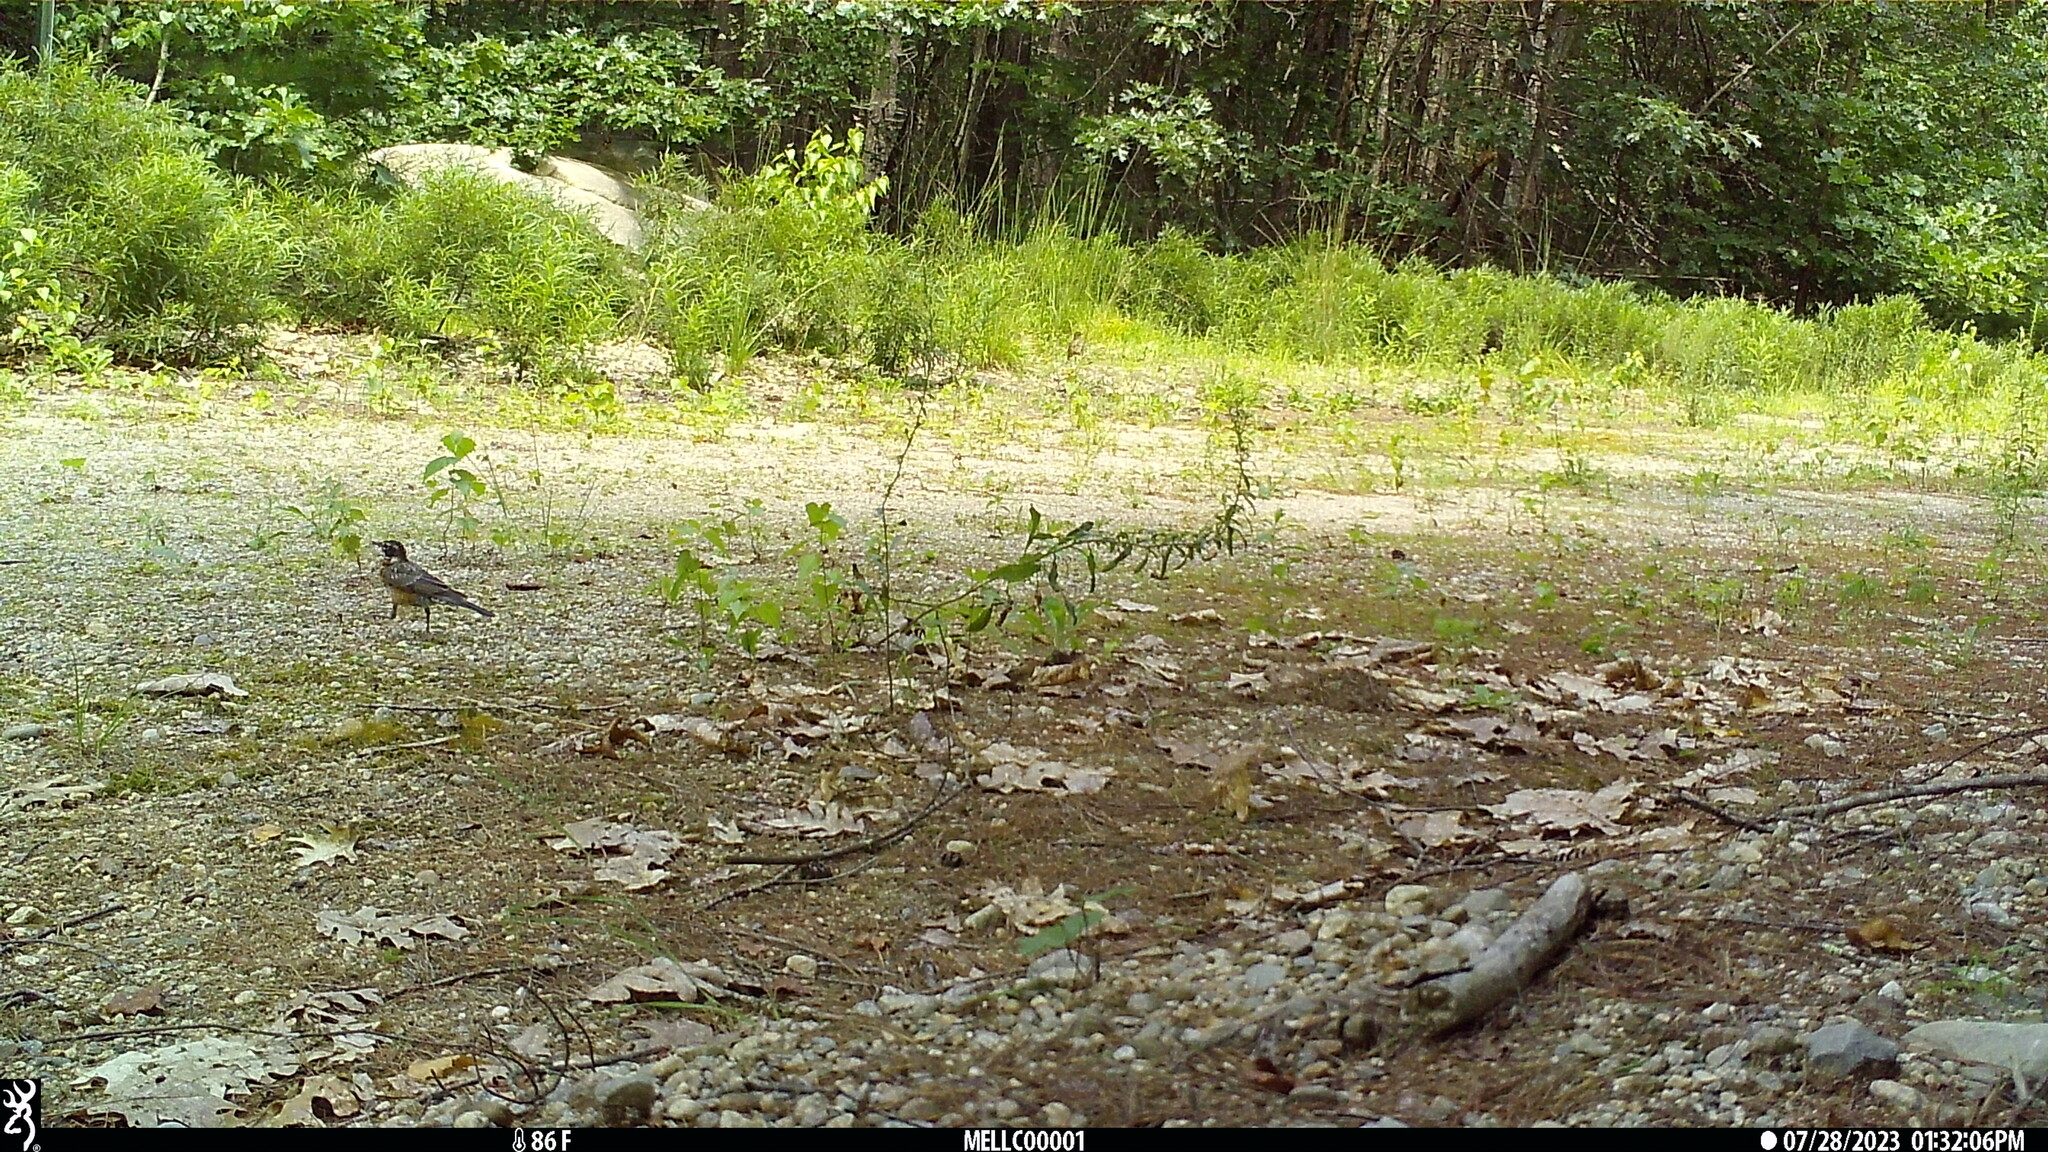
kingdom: Animalia
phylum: Chordata
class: Aves
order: Passeriformes
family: Turdidae
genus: Turdus
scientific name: Turdus migratorius
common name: American robin
